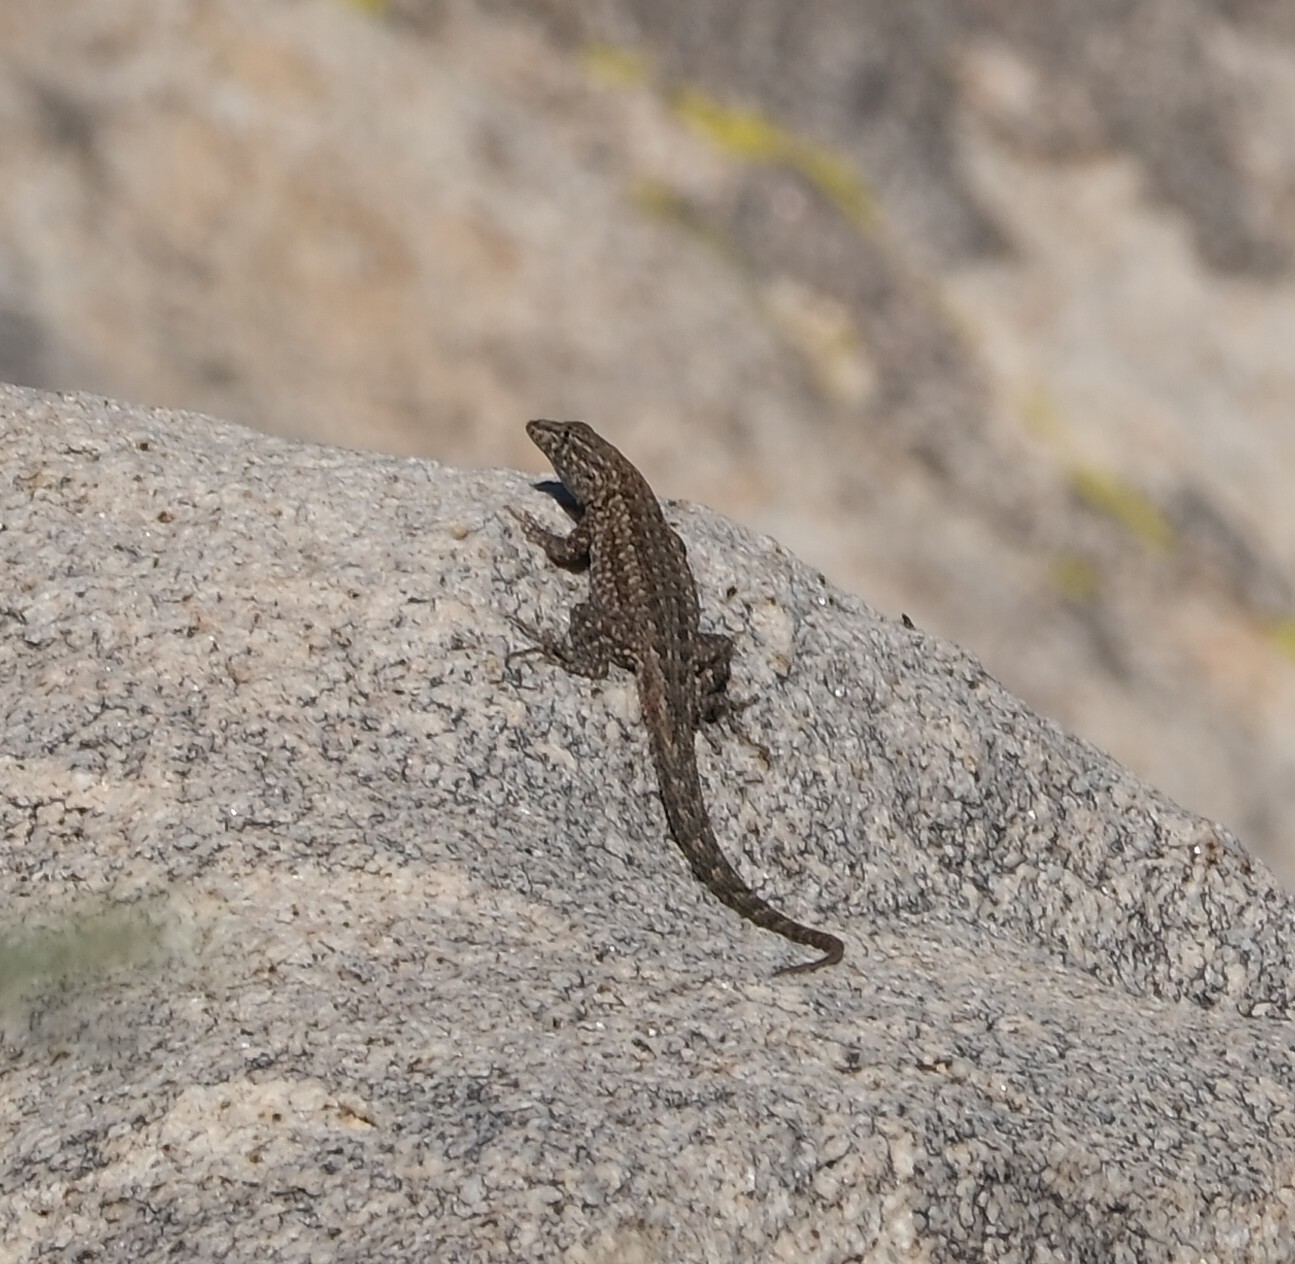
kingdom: Animalia
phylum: Chordata
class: Squamata
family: Phrynosomatidae
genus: Uta
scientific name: Uta stansburiana
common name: Side-blotched lizard
